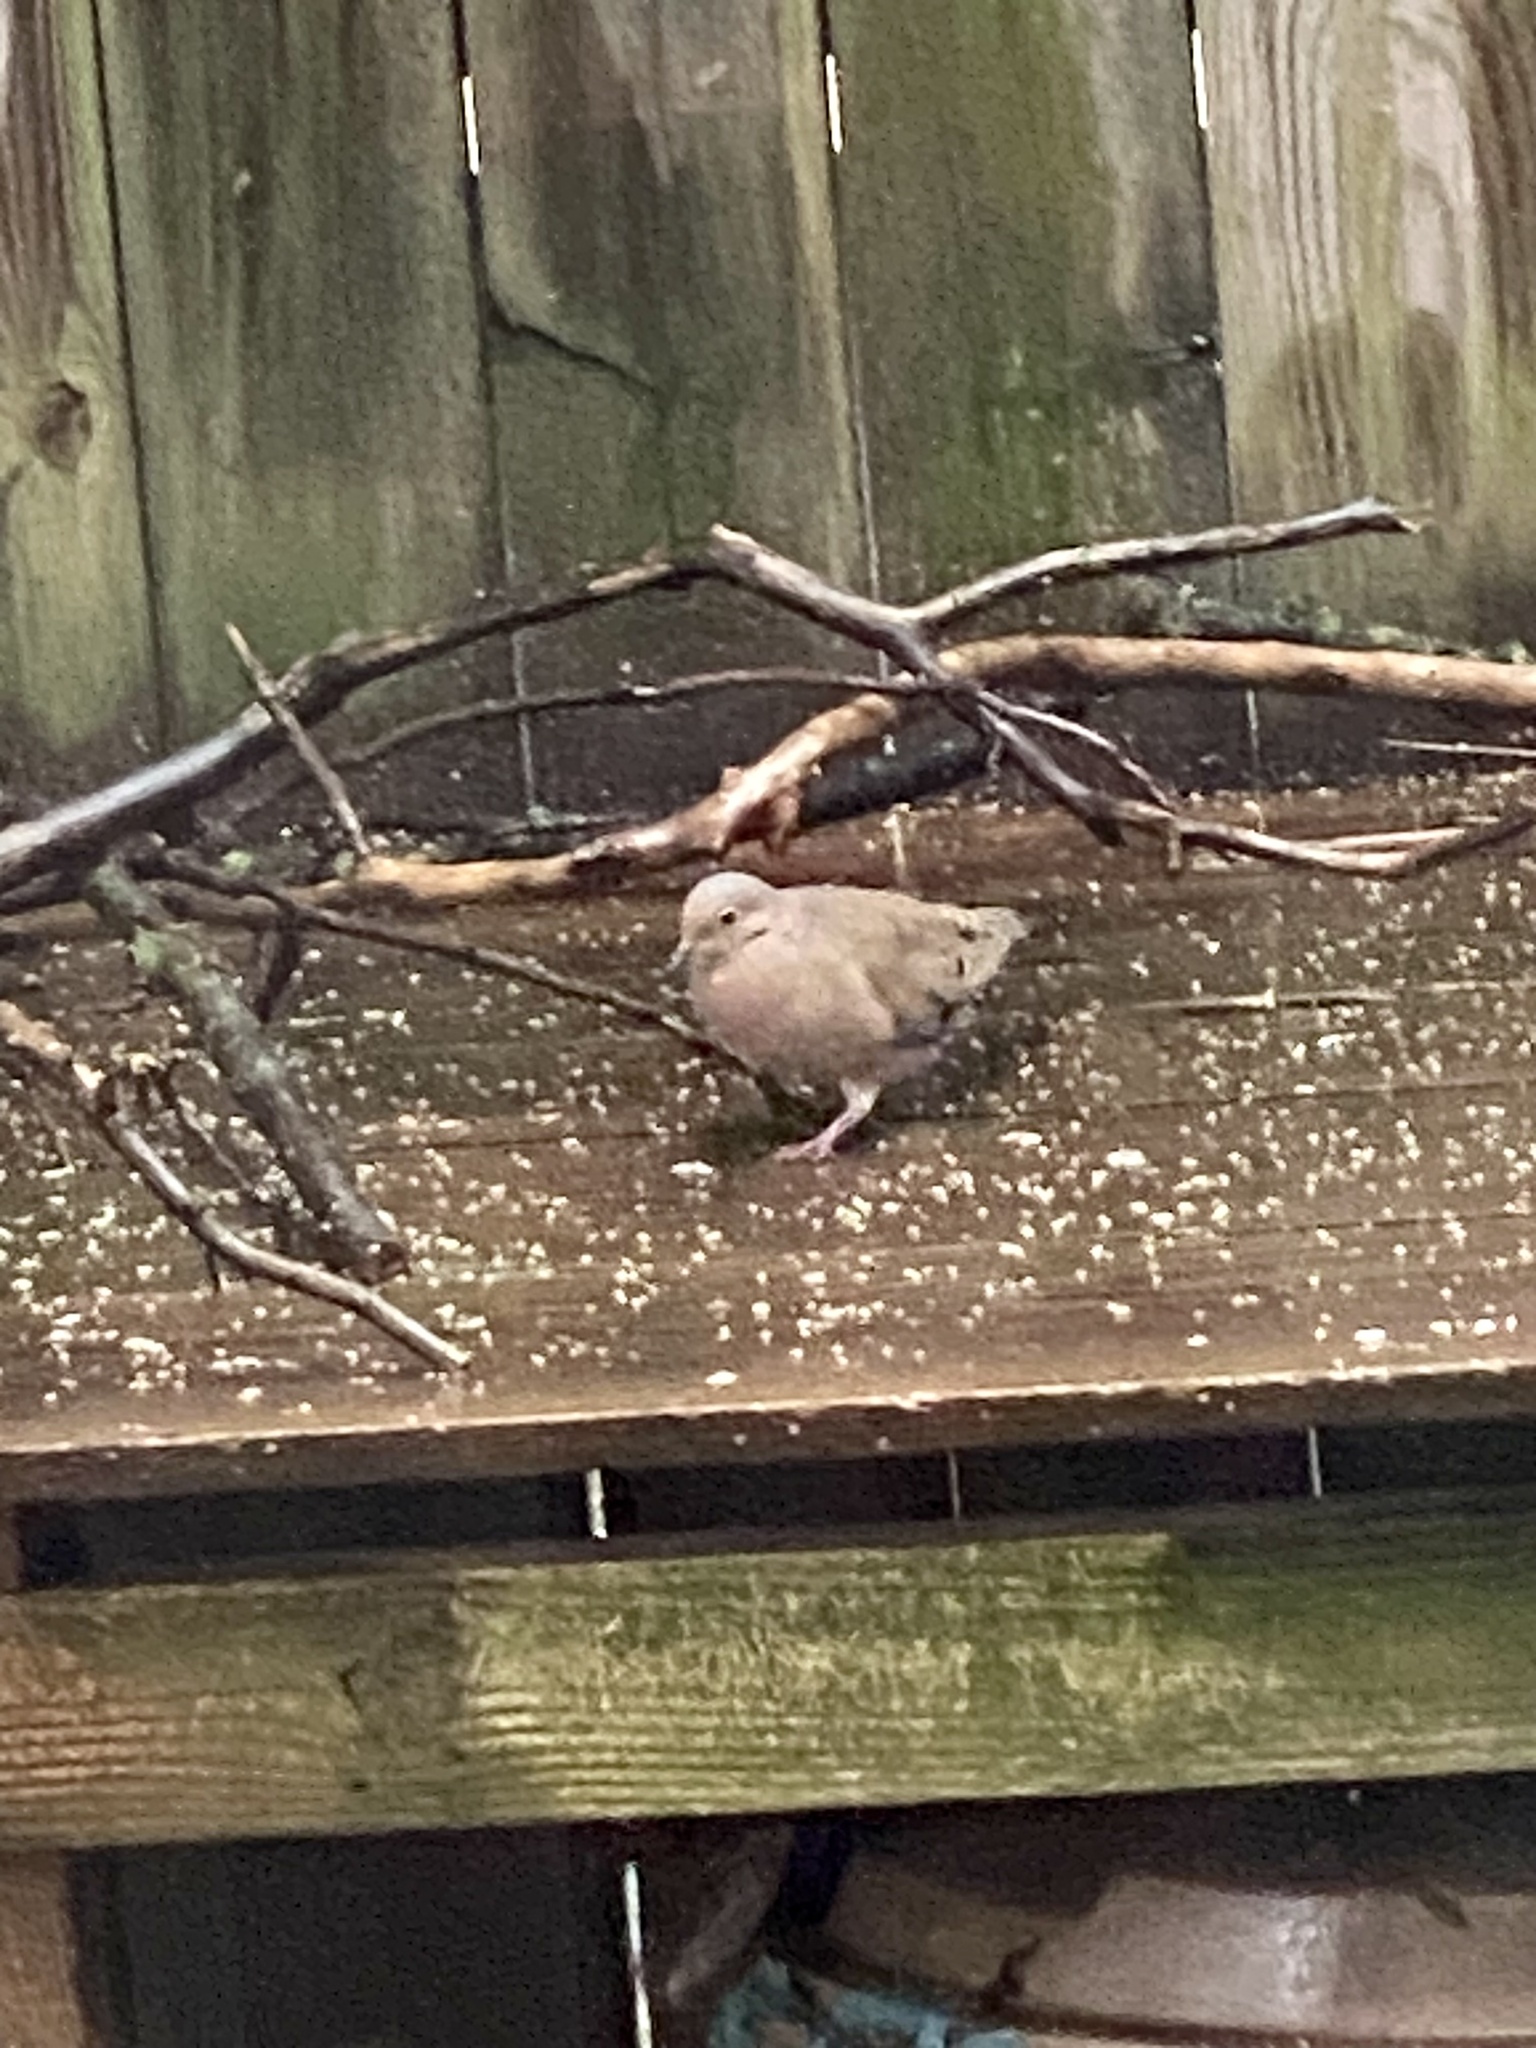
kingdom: Animalia
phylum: Chordata
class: Aves
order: Columbiformes
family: Columbidae
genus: Zenaida
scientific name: Zenaida macroura
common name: Mourning dove
